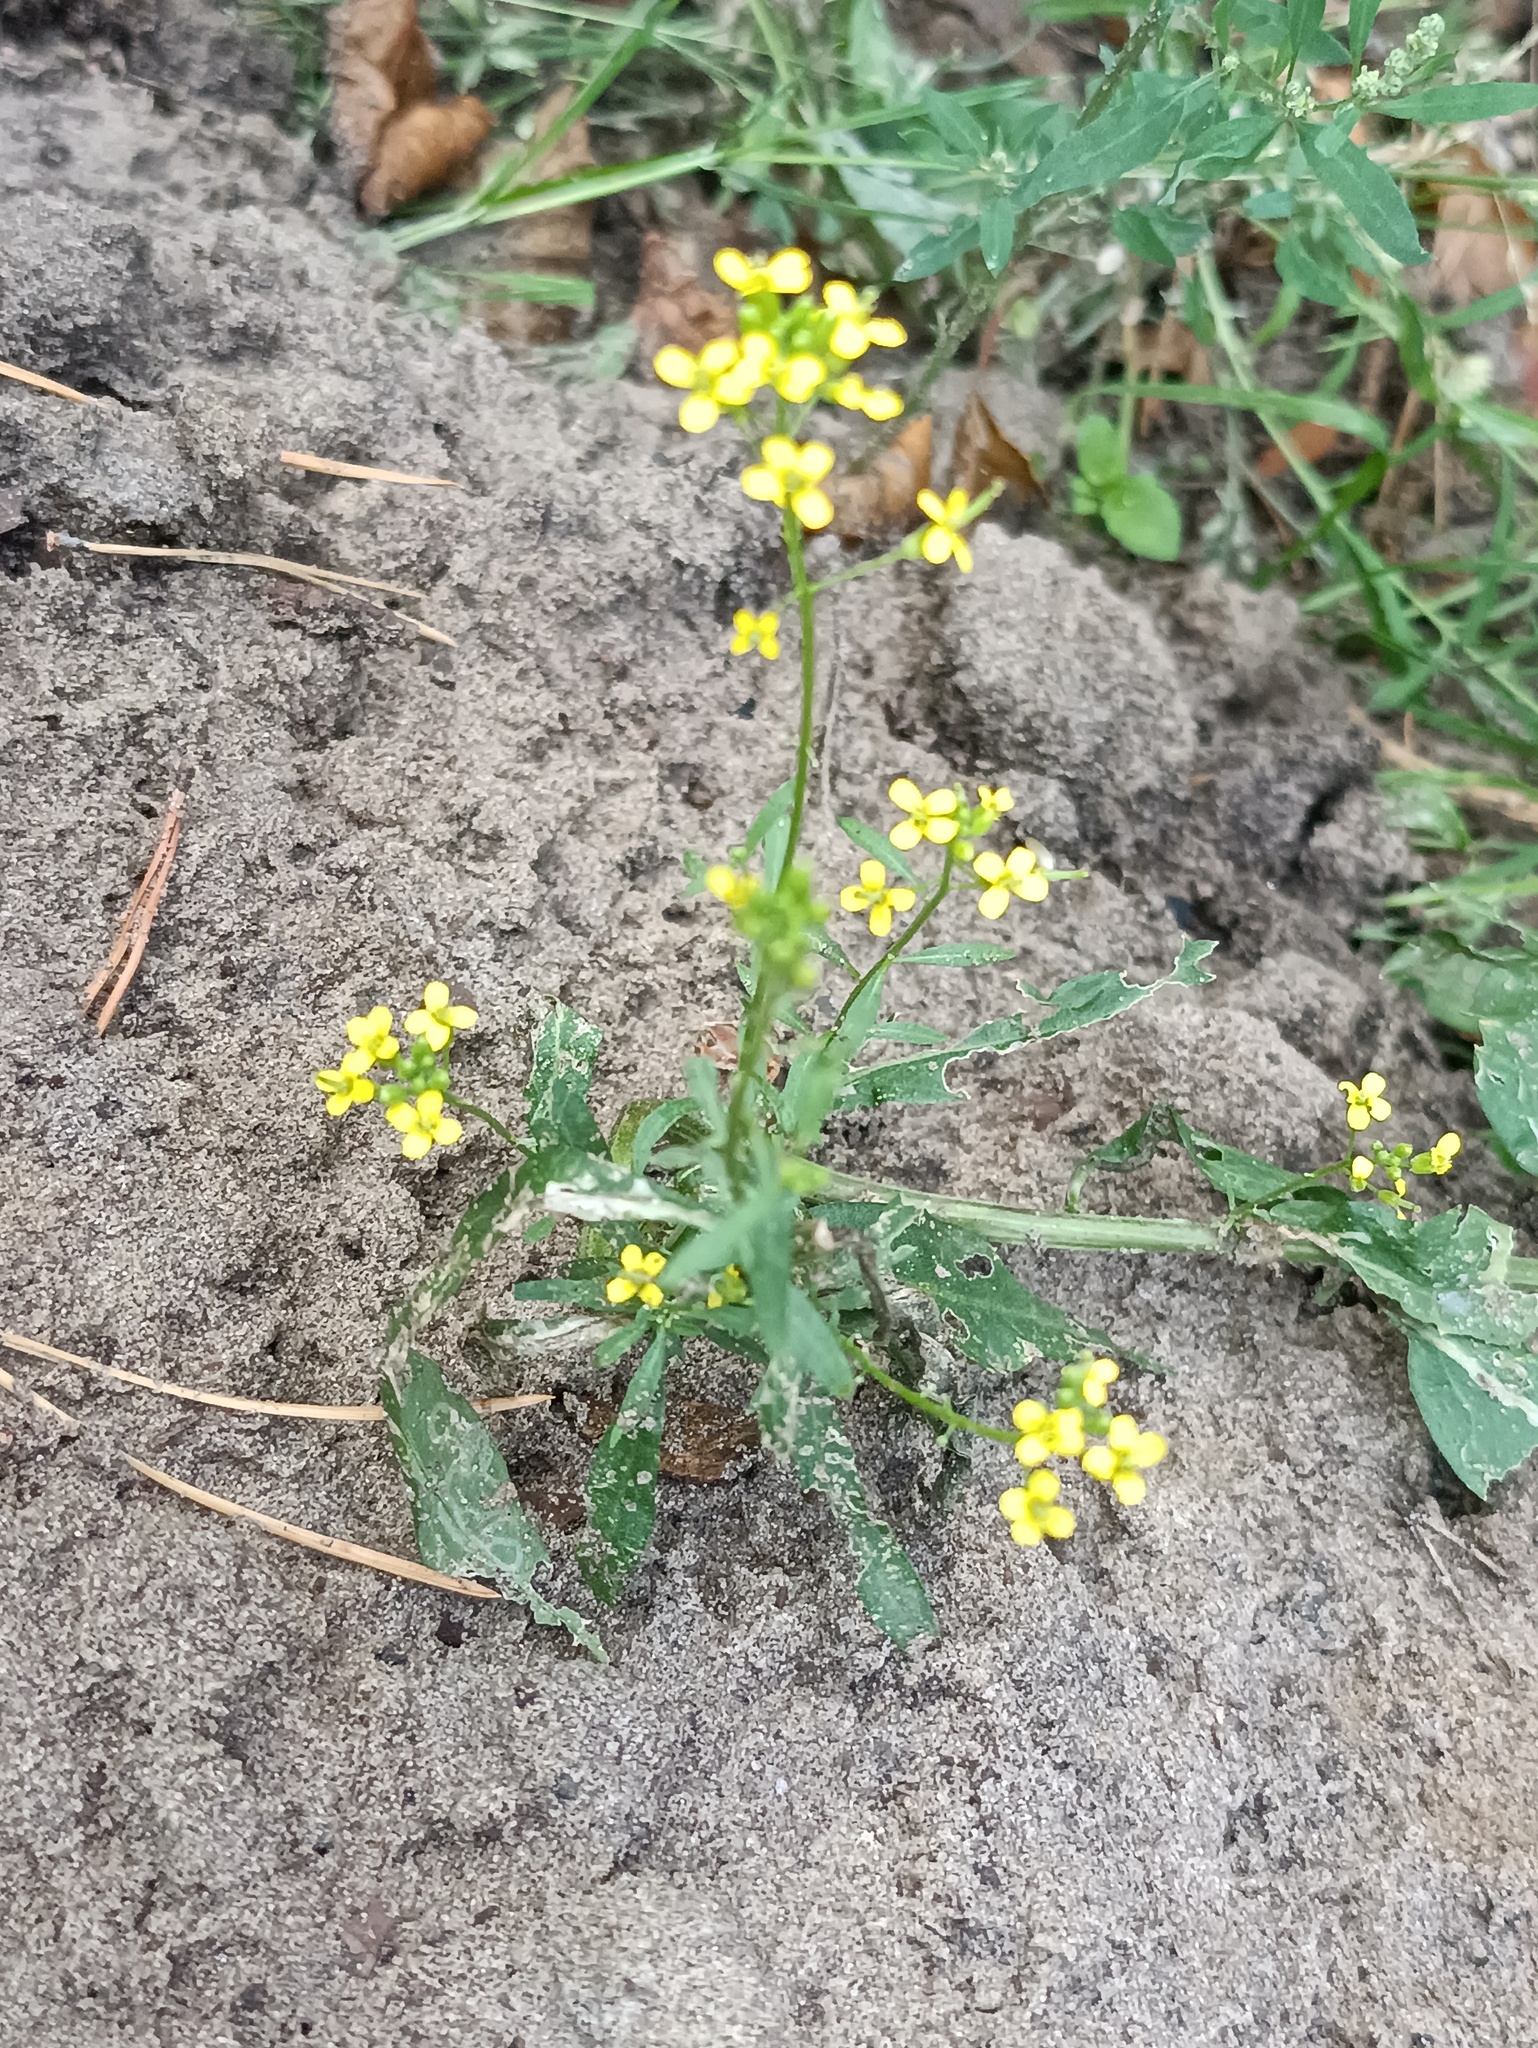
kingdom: Plantae
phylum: Tracheophyta
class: Magnoliopsida
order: Brassicales
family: Brassicaceae
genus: Erysimum
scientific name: Erysimum cheiranthoides
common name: Treacle mustard
